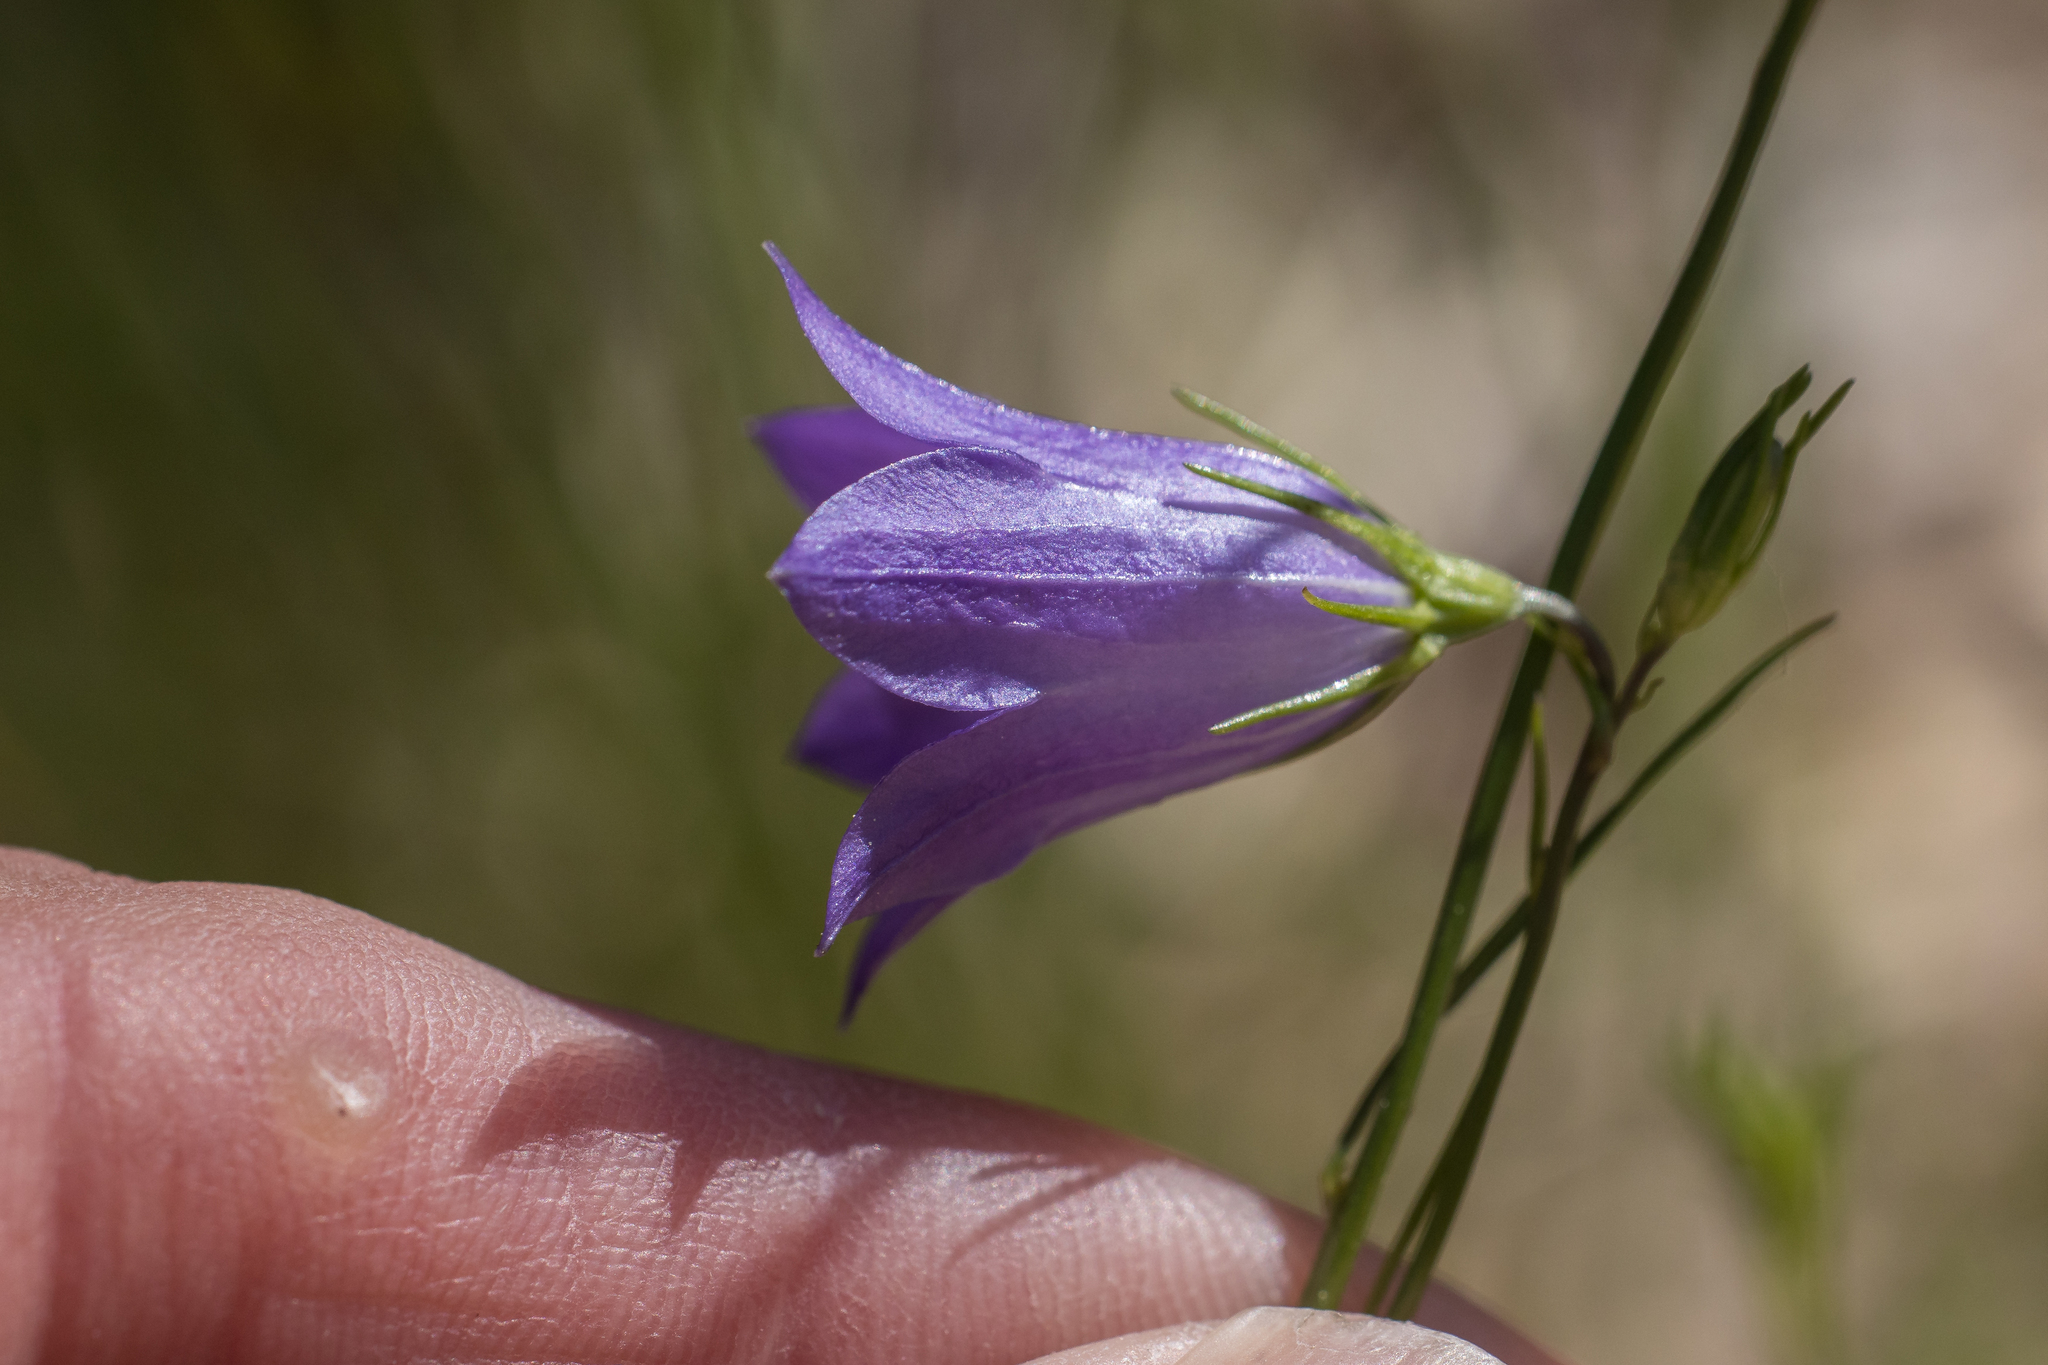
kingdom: Plantae
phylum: Tracheophyta
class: Magnoliopsida
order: Asterales
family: Campanulaceae
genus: Campanula
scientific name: Campanula petiolata
